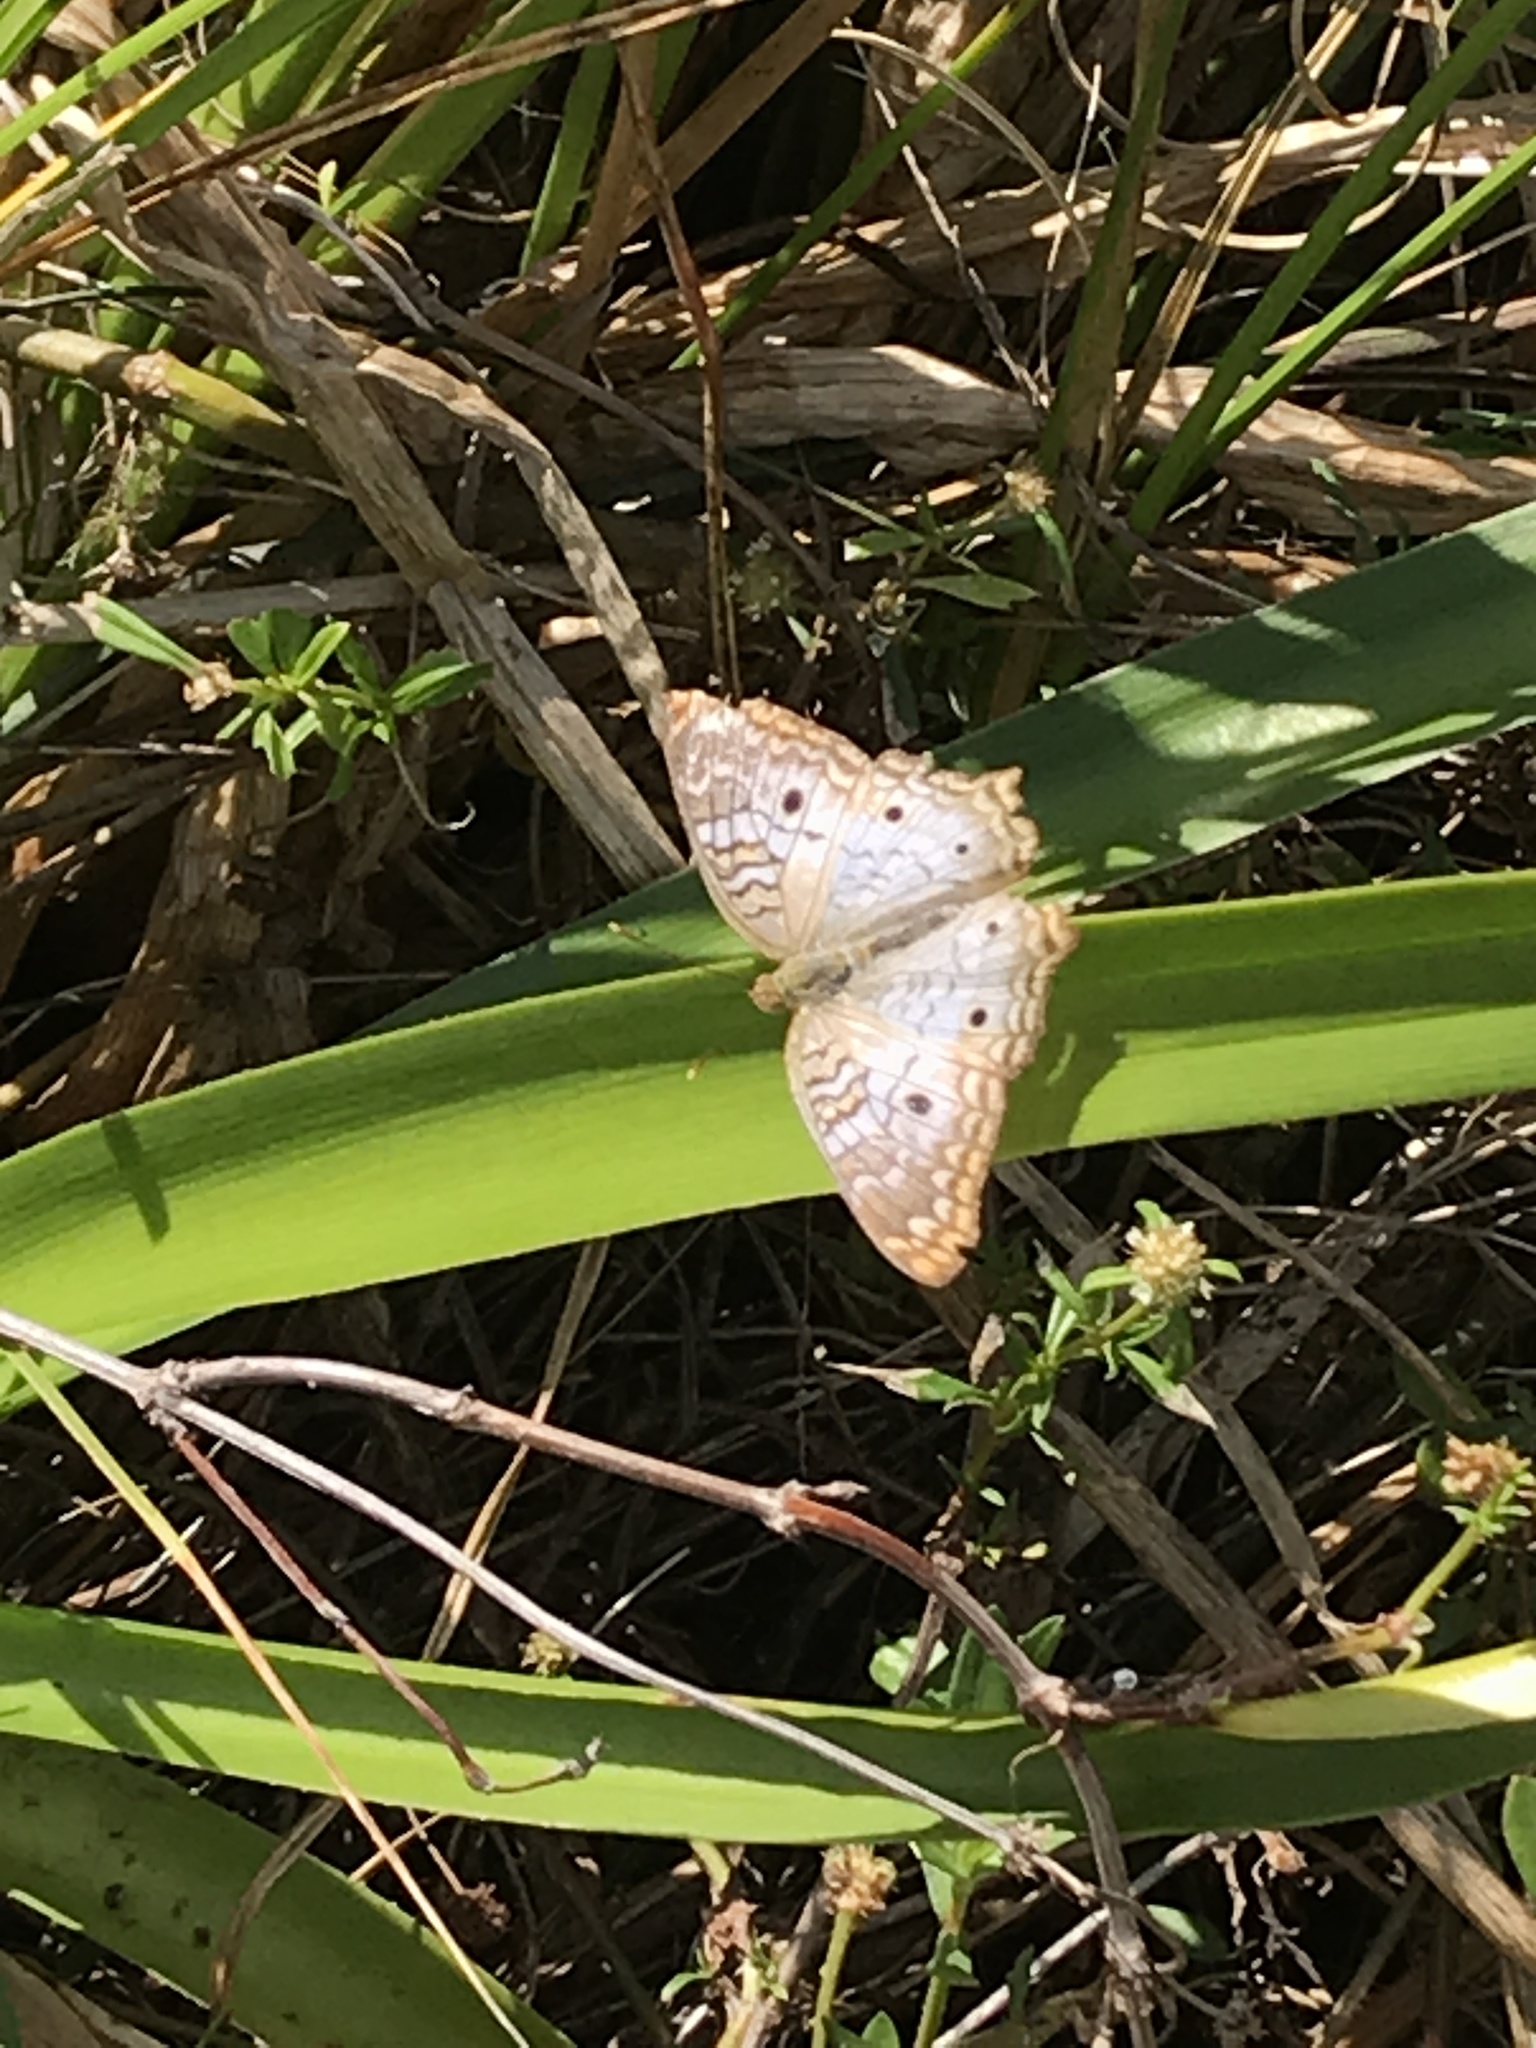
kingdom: Animalia
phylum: Arthropoda
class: Insecta
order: Lepidoptera
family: Nymphalidae
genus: Anartia
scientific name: Anartia jatrophae
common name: White peacock
